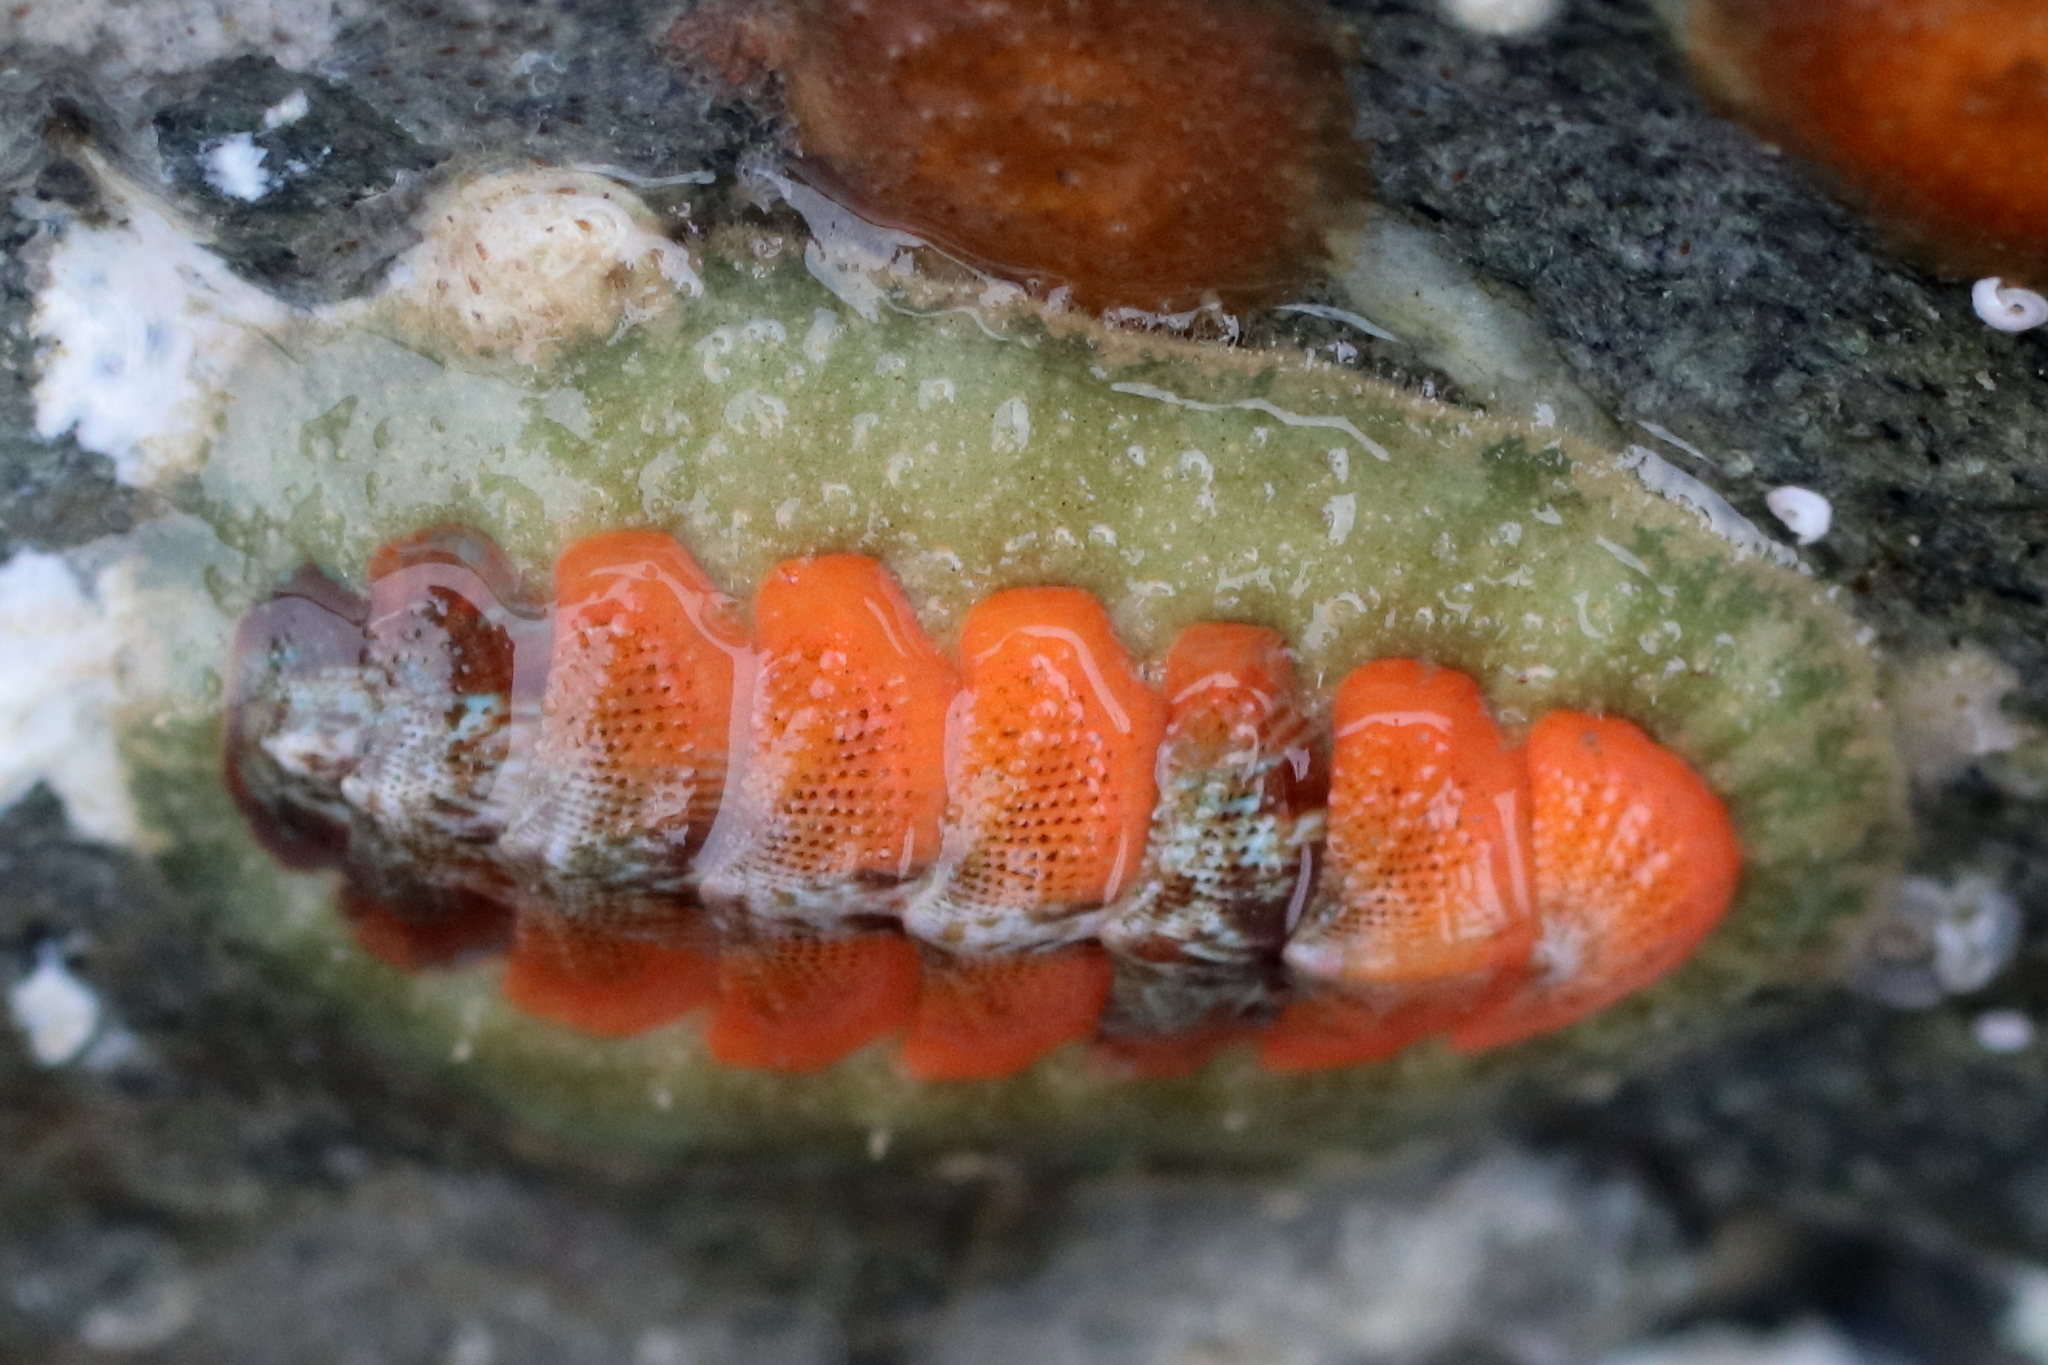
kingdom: Animalia
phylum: Mollusca
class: Polyplacophora
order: Chitonida
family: Mopaliidae
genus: Mopalia
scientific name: Mopalia swanii
